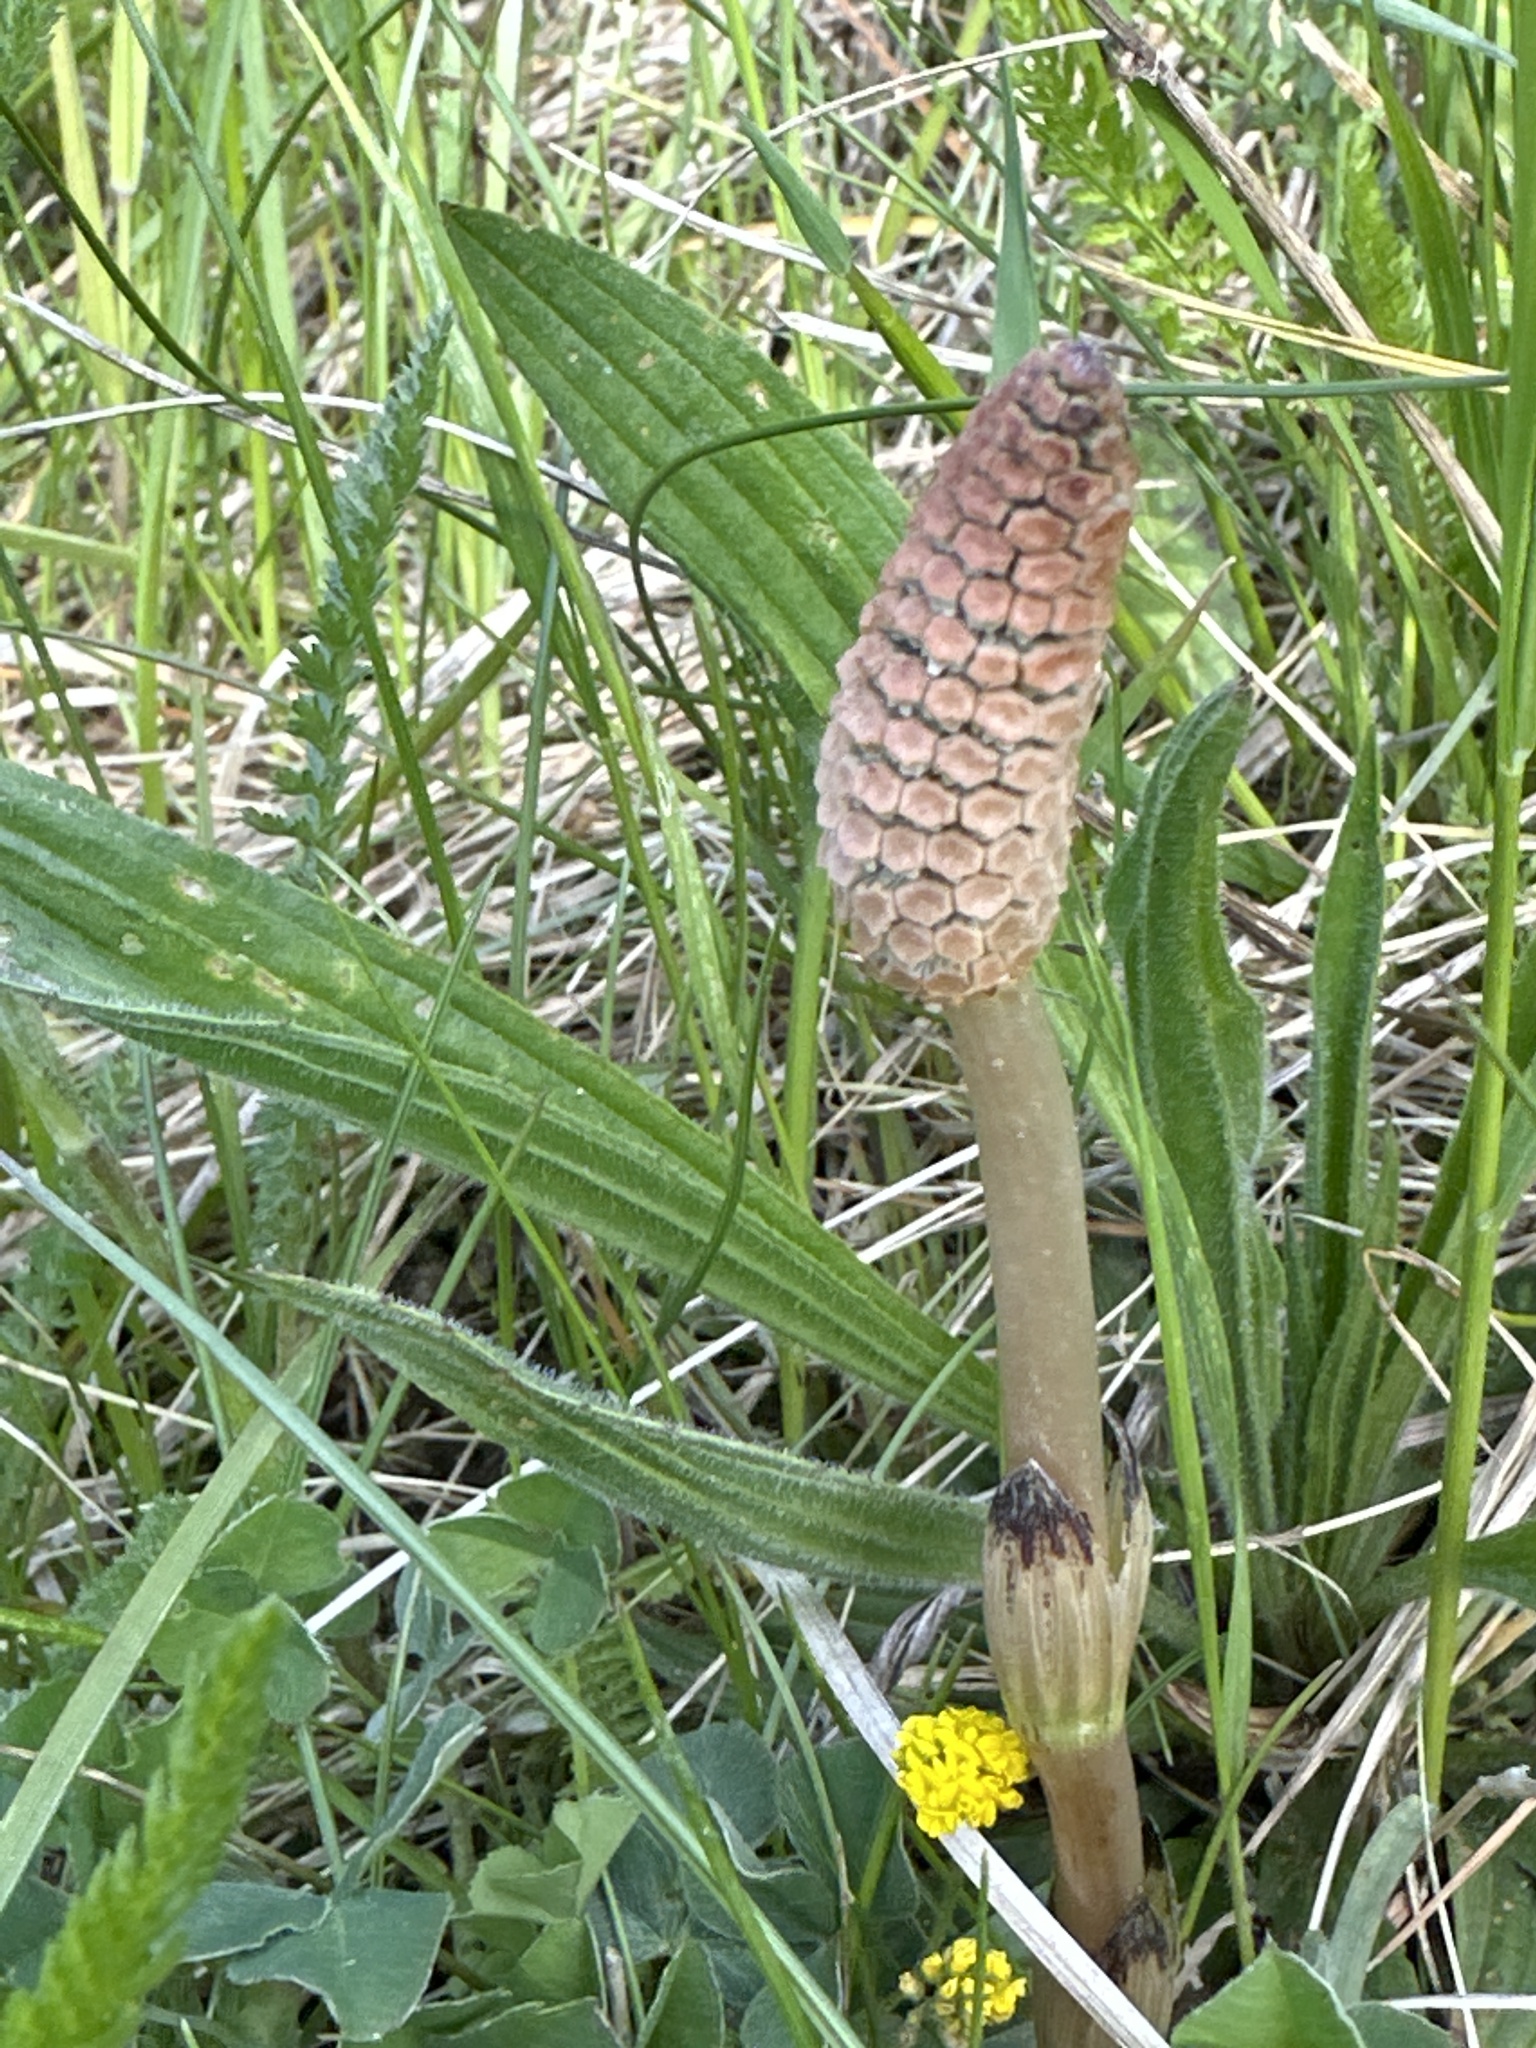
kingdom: Plantae
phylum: Tracheophyta
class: Polypodiopsida
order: Equisetales
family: Equisetaceae
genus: Equisetum
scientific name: Equisetum arvense
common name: Field horsetail
